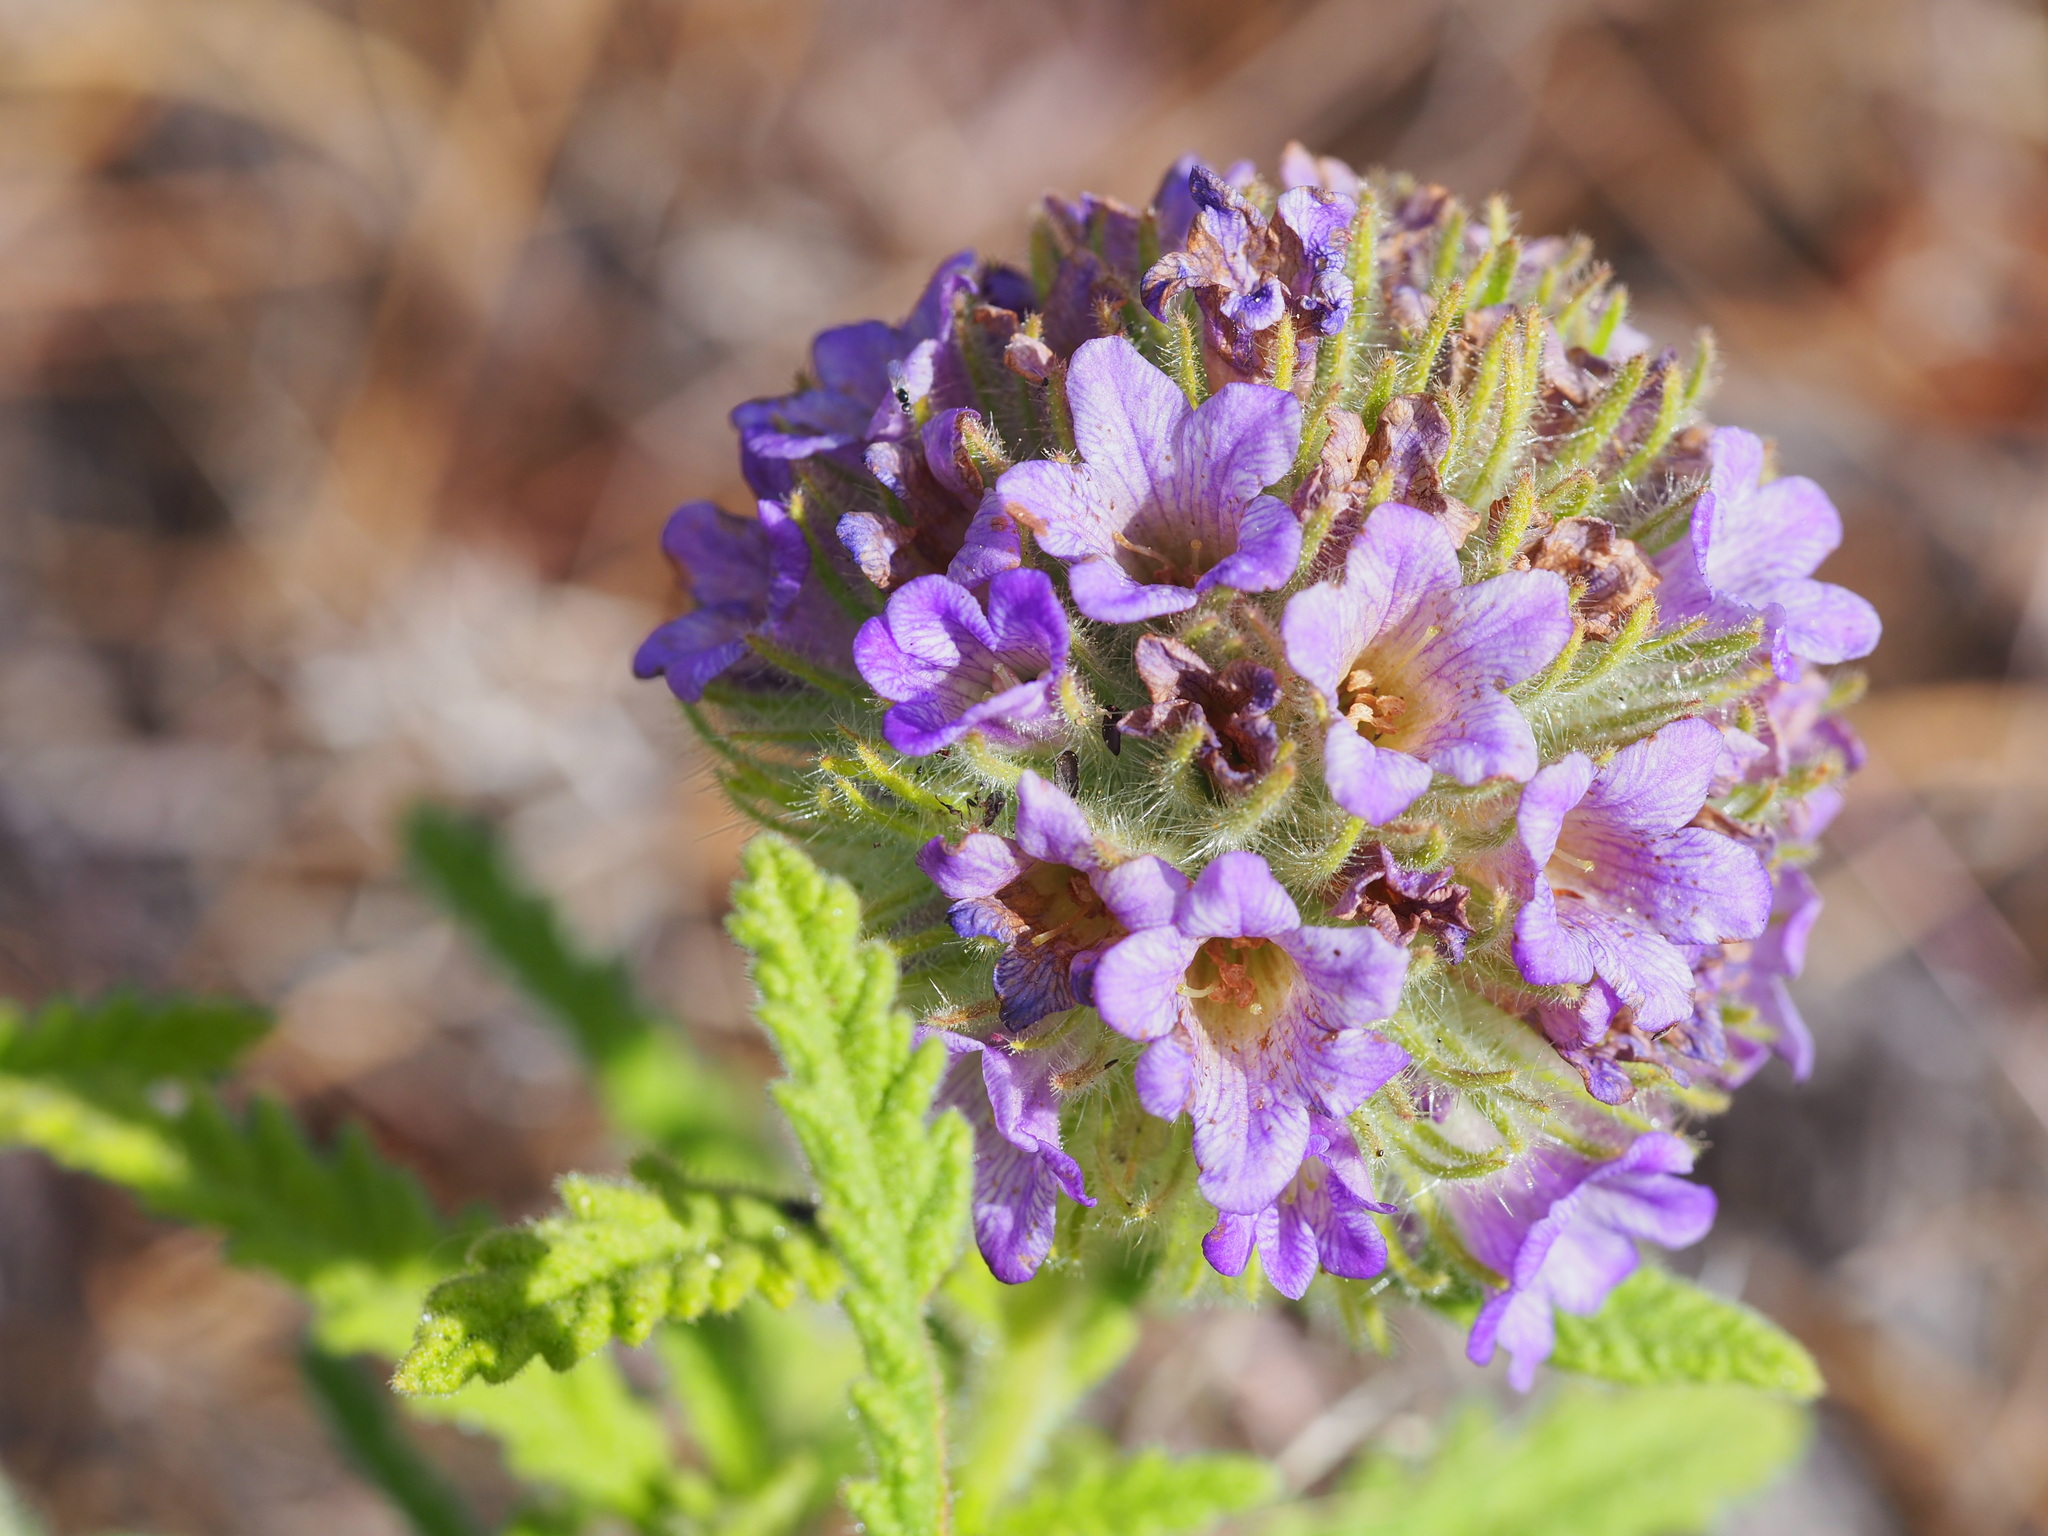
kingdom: Plantae
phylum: Tracheophyta
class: Magnoliopsida
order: Boraginales
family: Namaceae
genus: Nama
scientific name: Nama rothrockii
